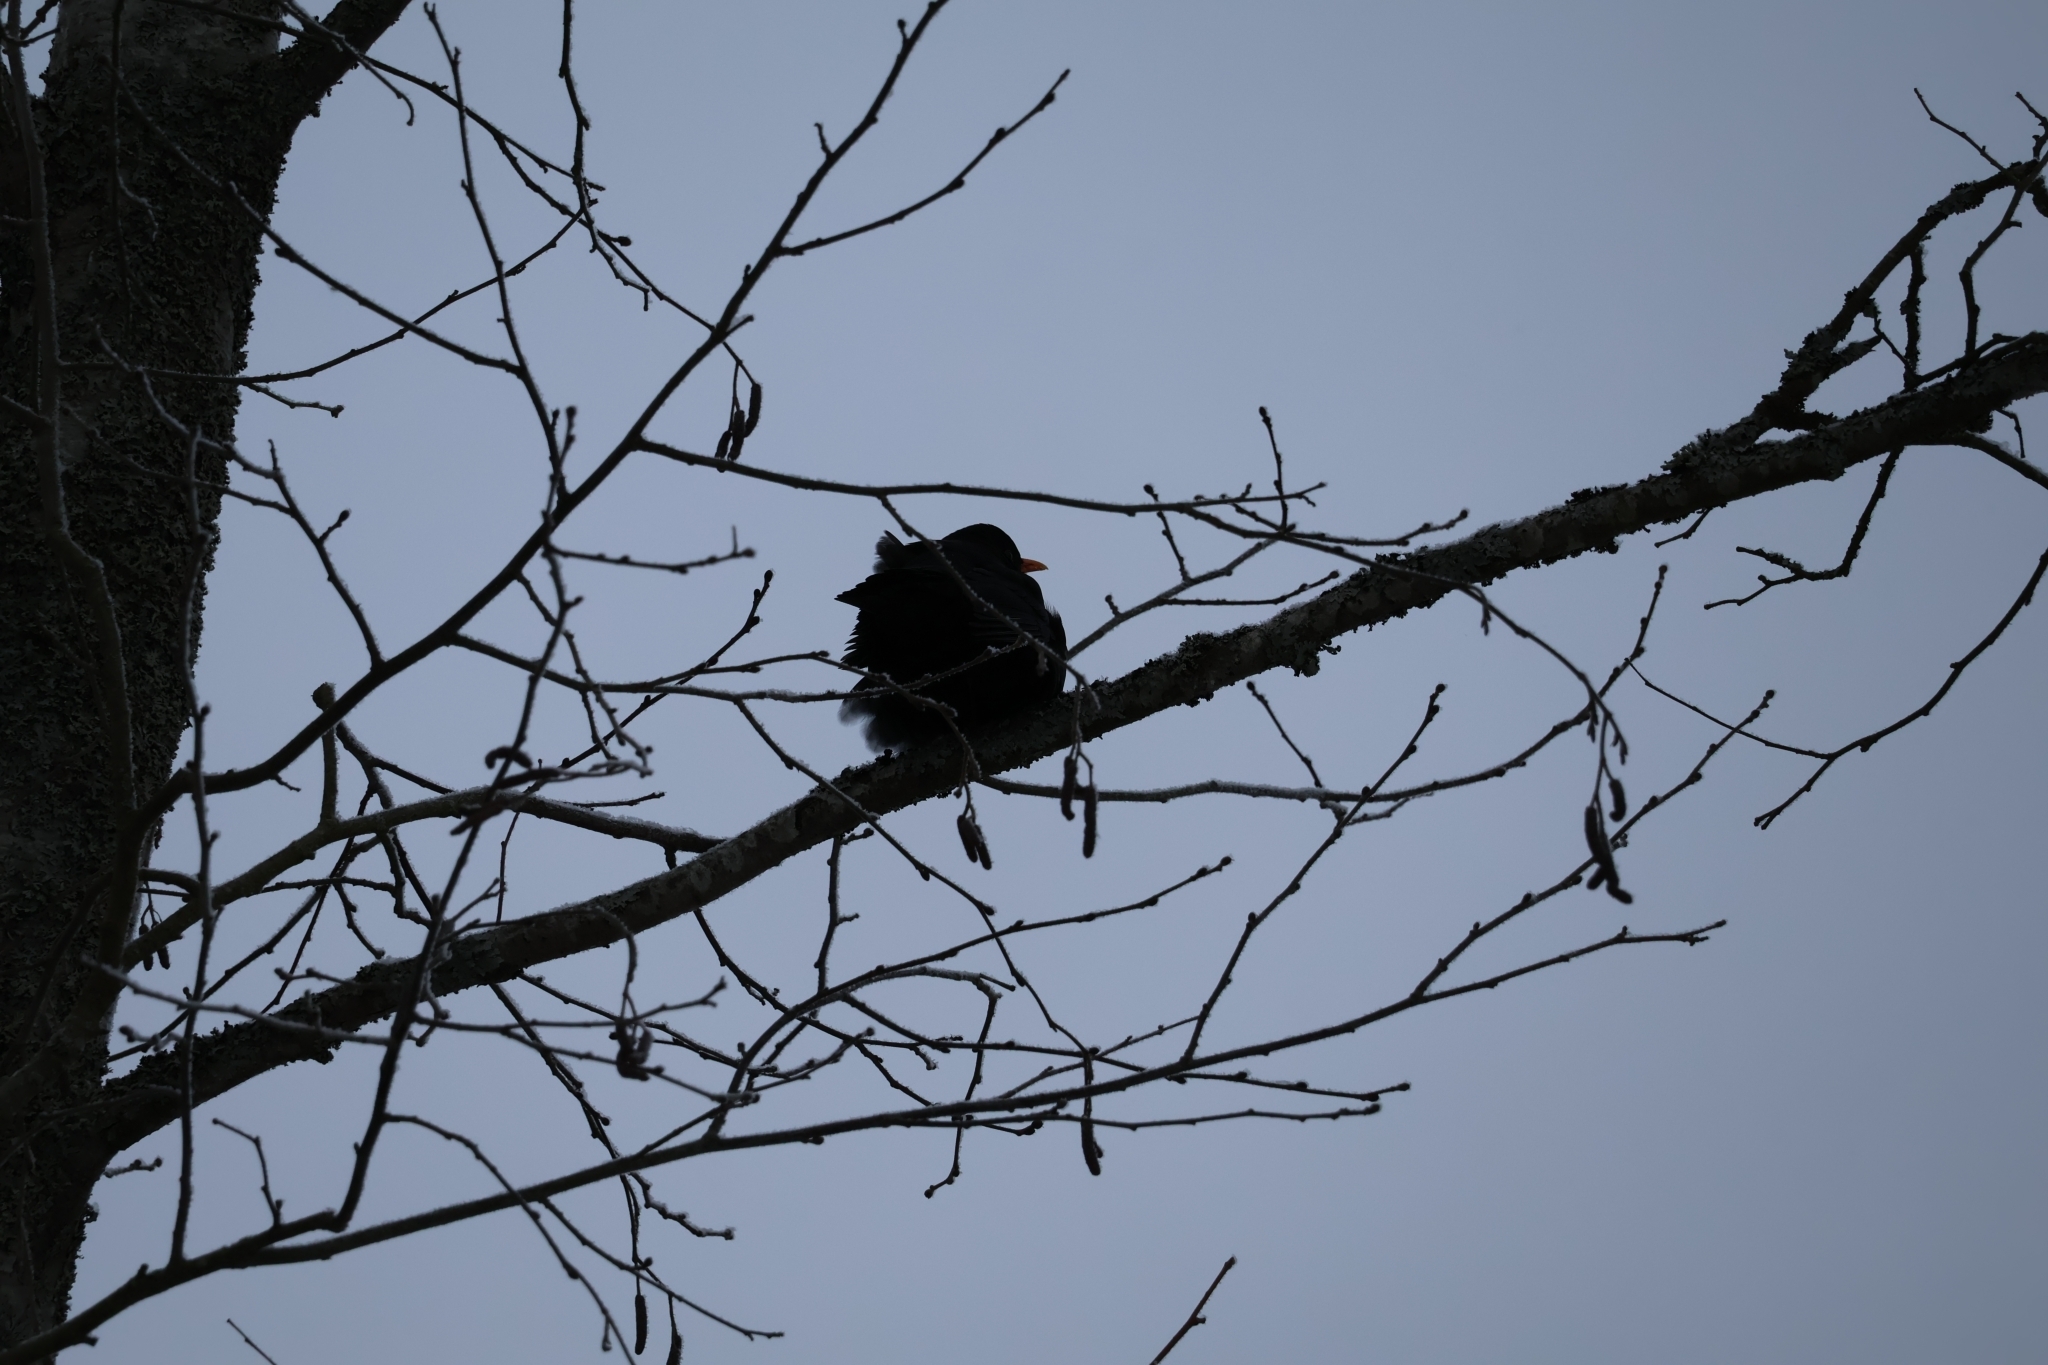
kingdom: Animalia
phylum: Chordata
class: Aves
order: Passeriformes
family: Turdidae
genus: Turdus
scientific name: Turdus merula
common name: Common blackbird
